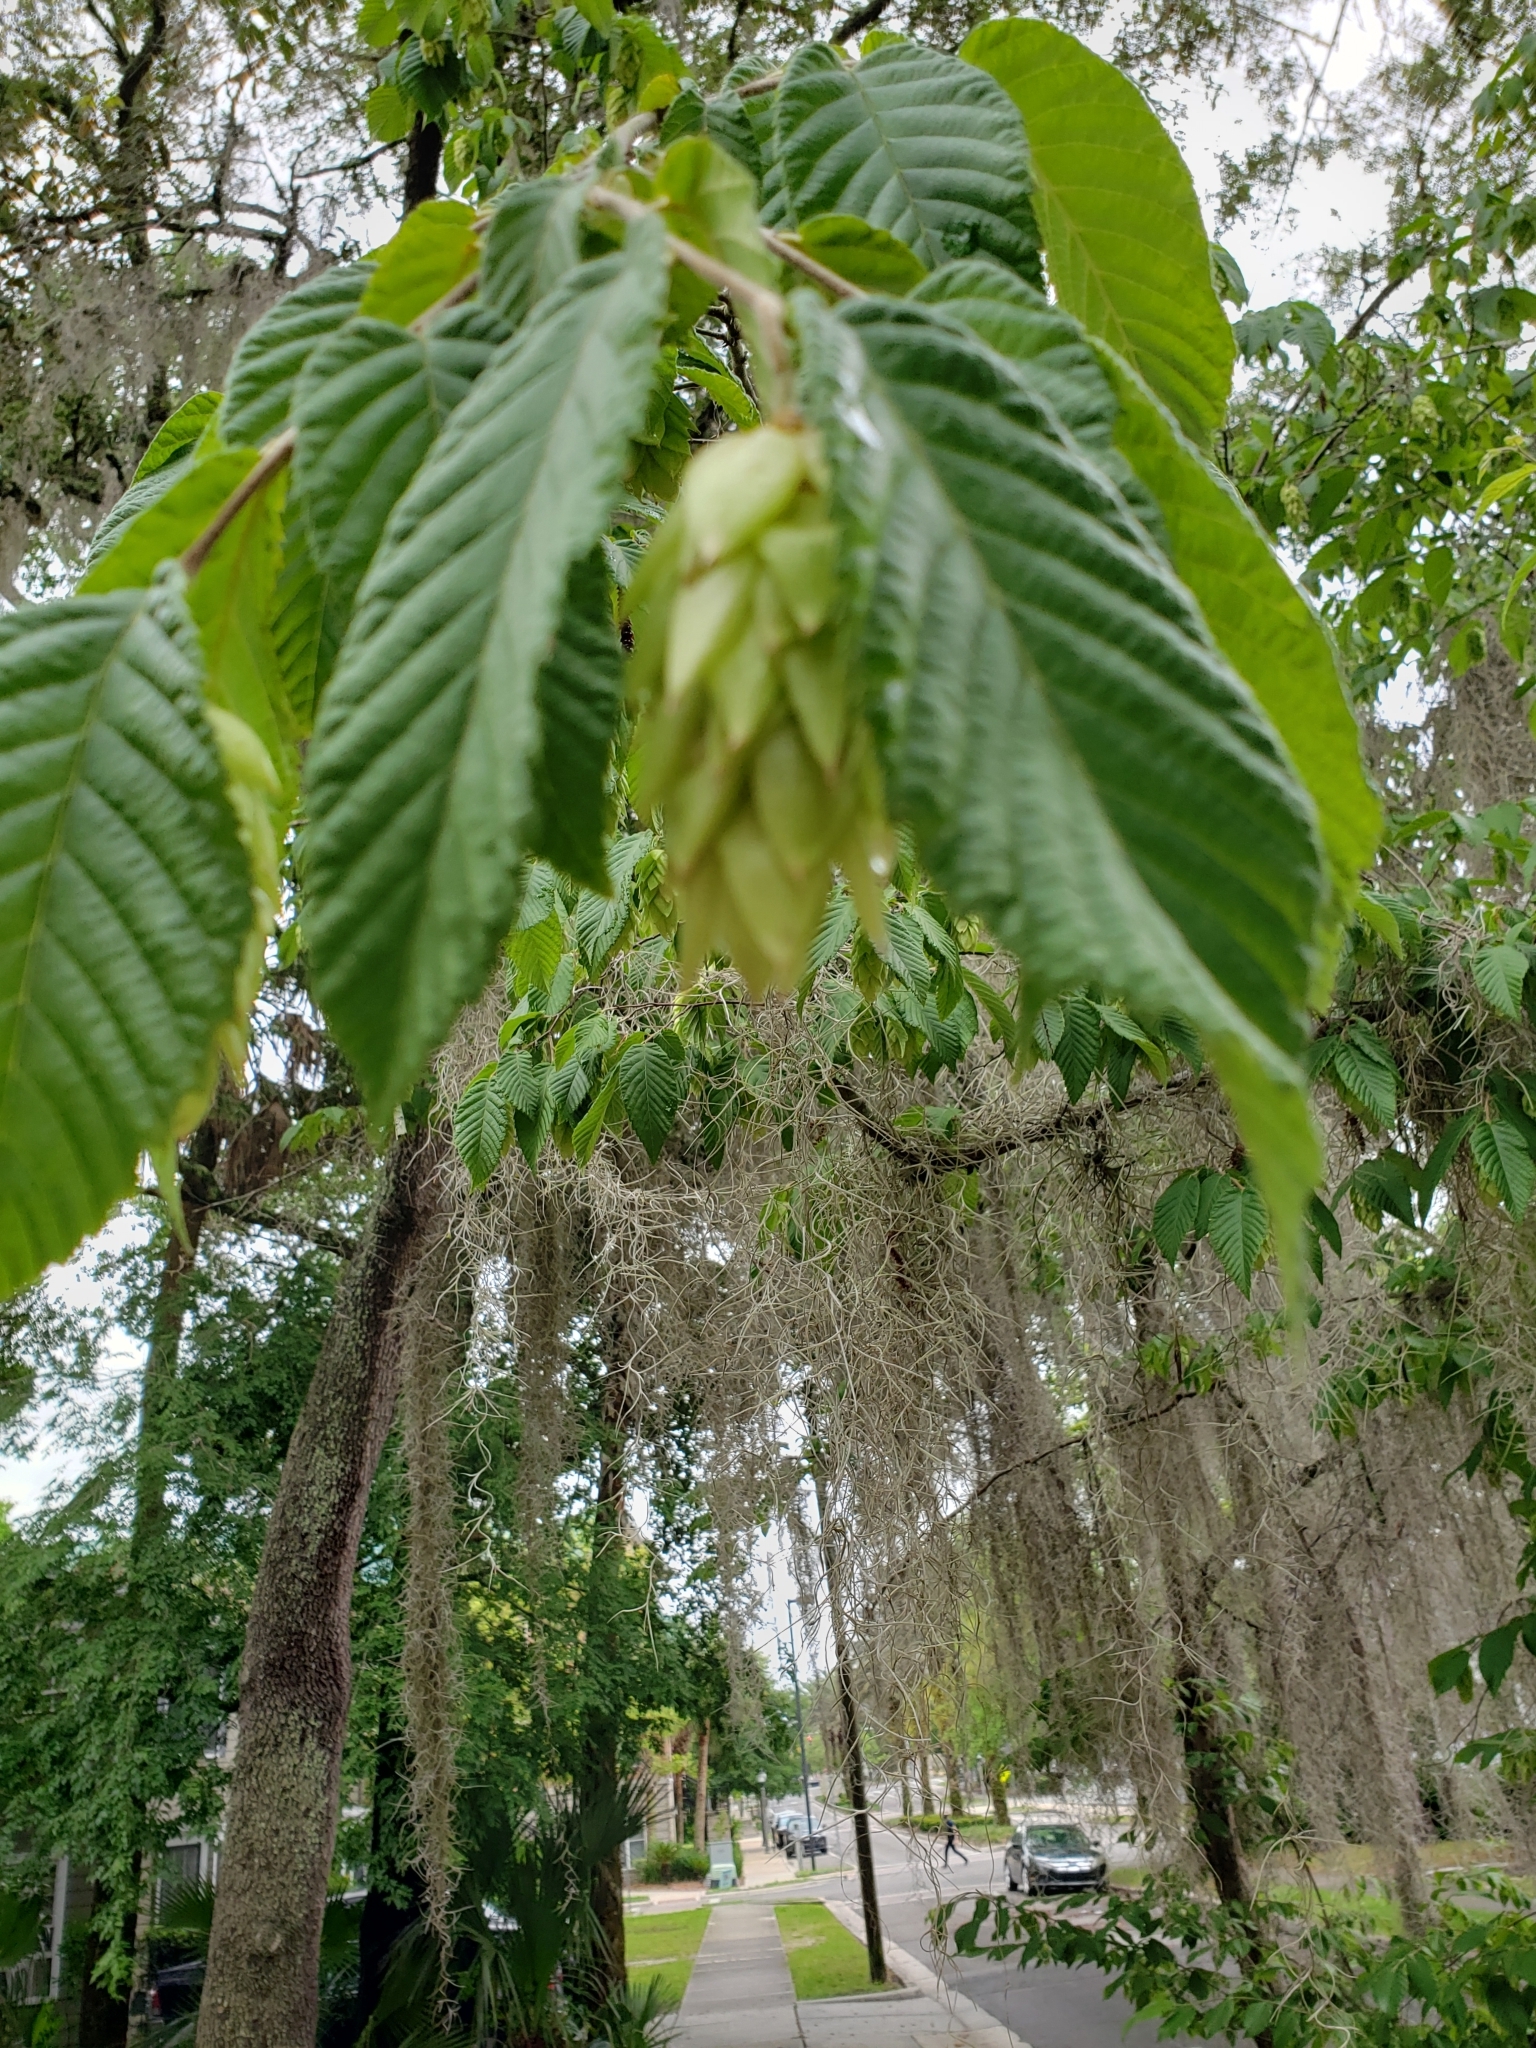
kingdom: Plantae
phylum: Tracheophyta
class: Magnoliopsida
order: Fagales
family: Betulaceae
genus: Ostrya
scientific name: Ostrya virginiana
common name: Ironwood
